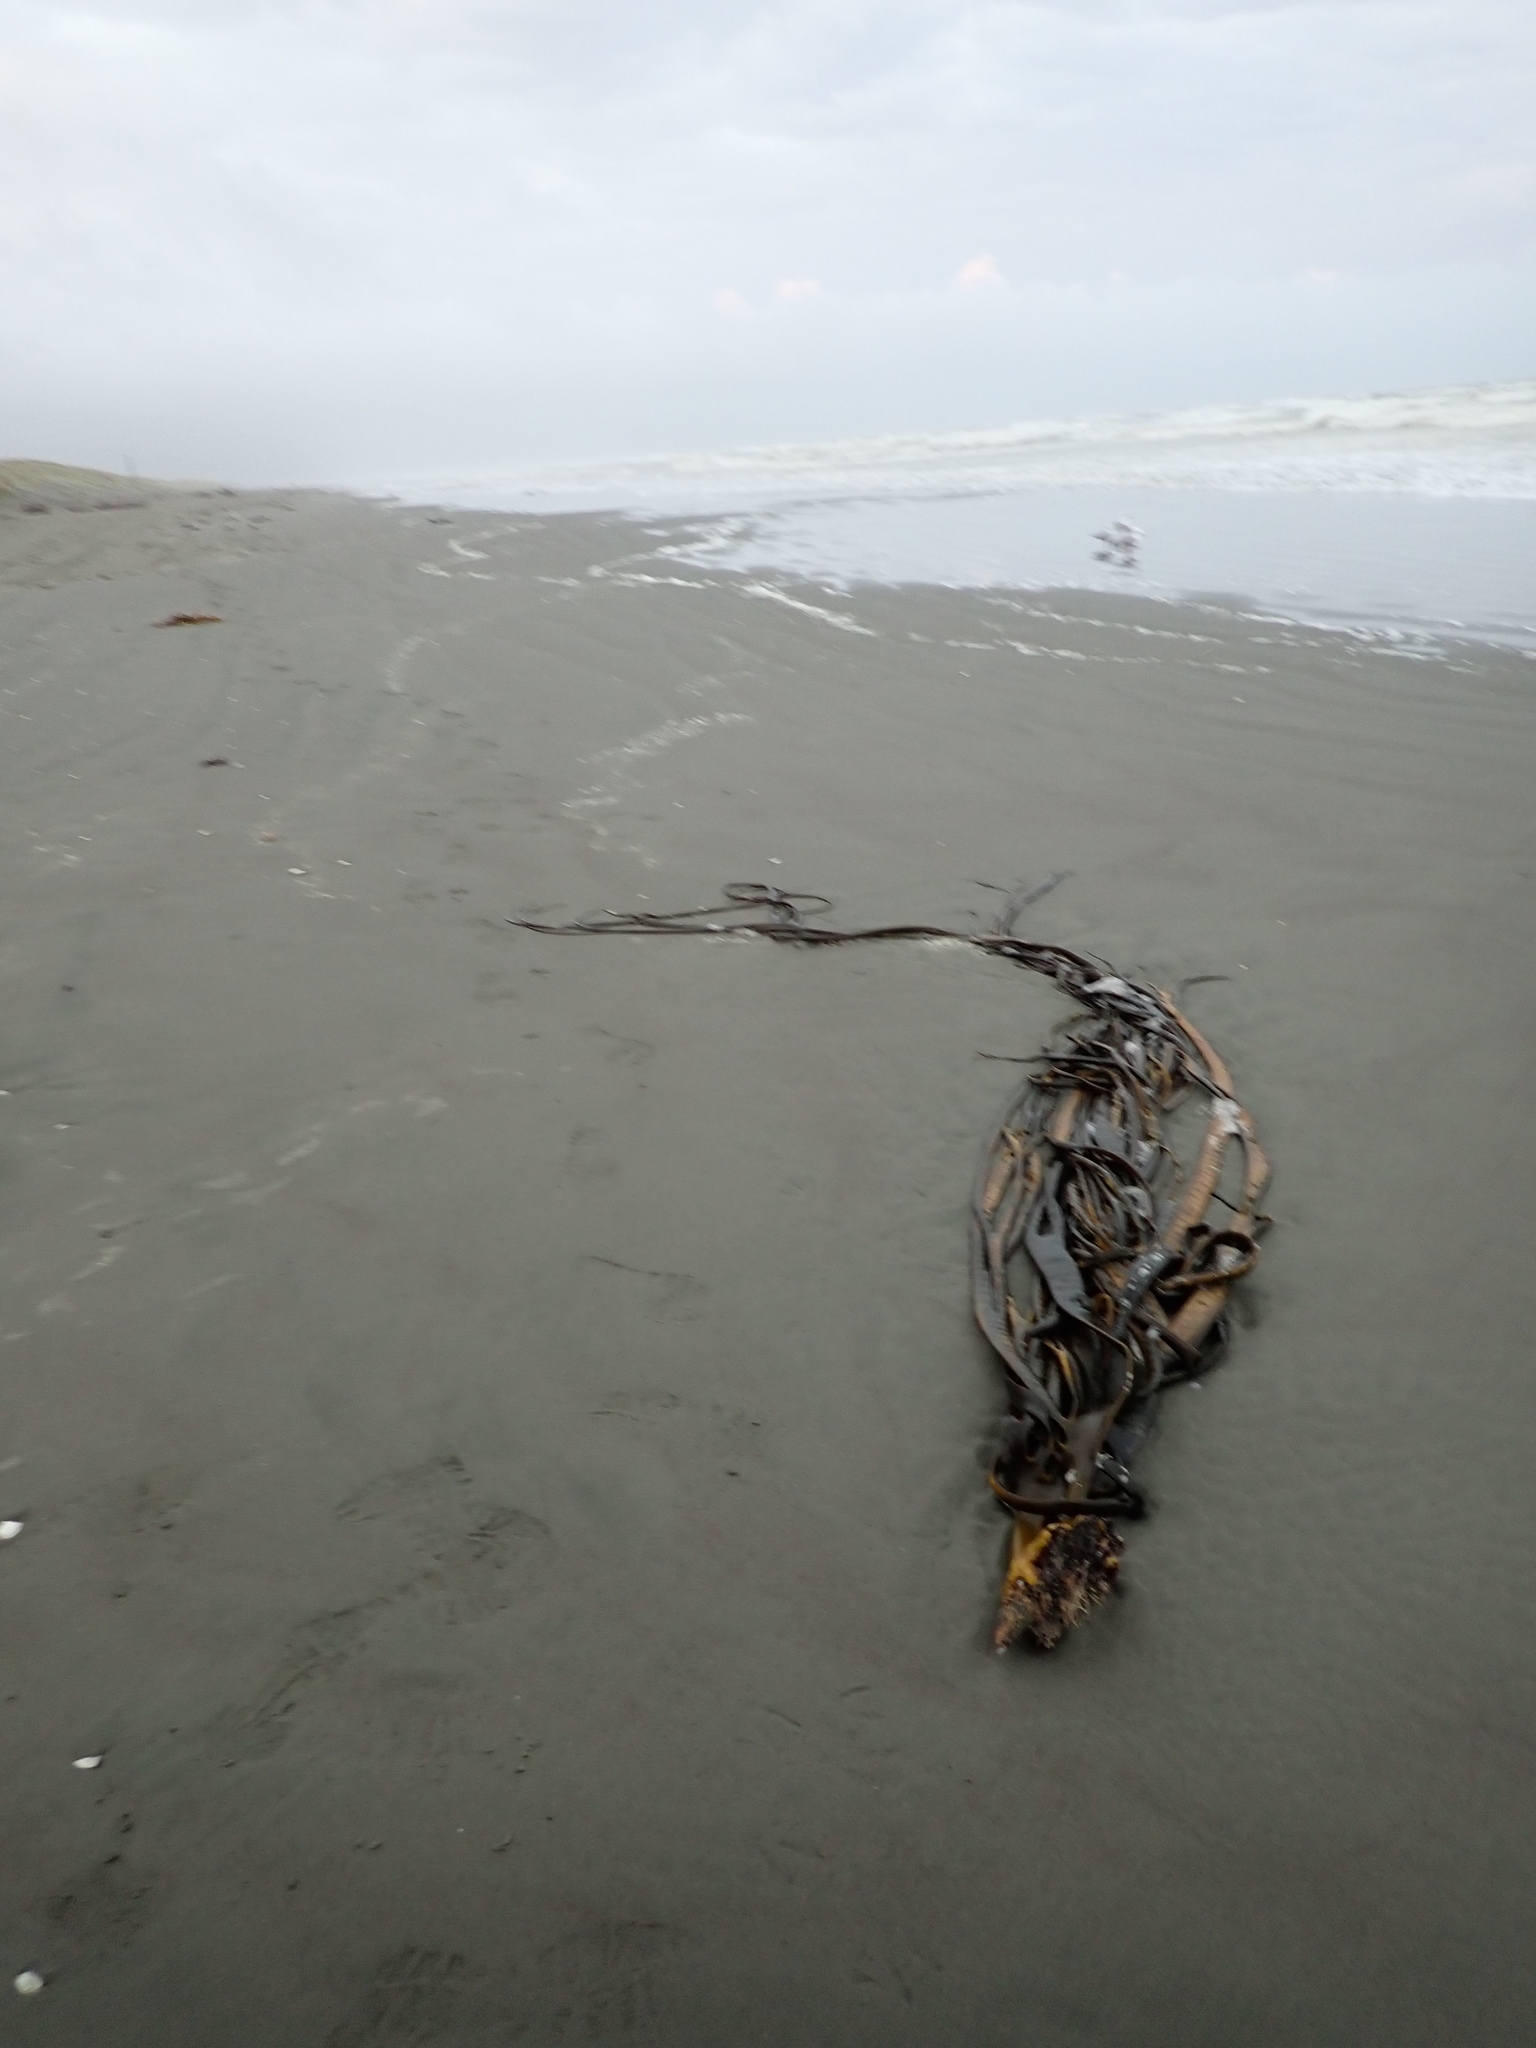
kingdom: Chromista
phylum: Ochrophyta
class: Phaeophyceae
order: Fucales
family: Durvillaeaceae
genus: Durvillaea
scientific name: Durvillaea antarctica
